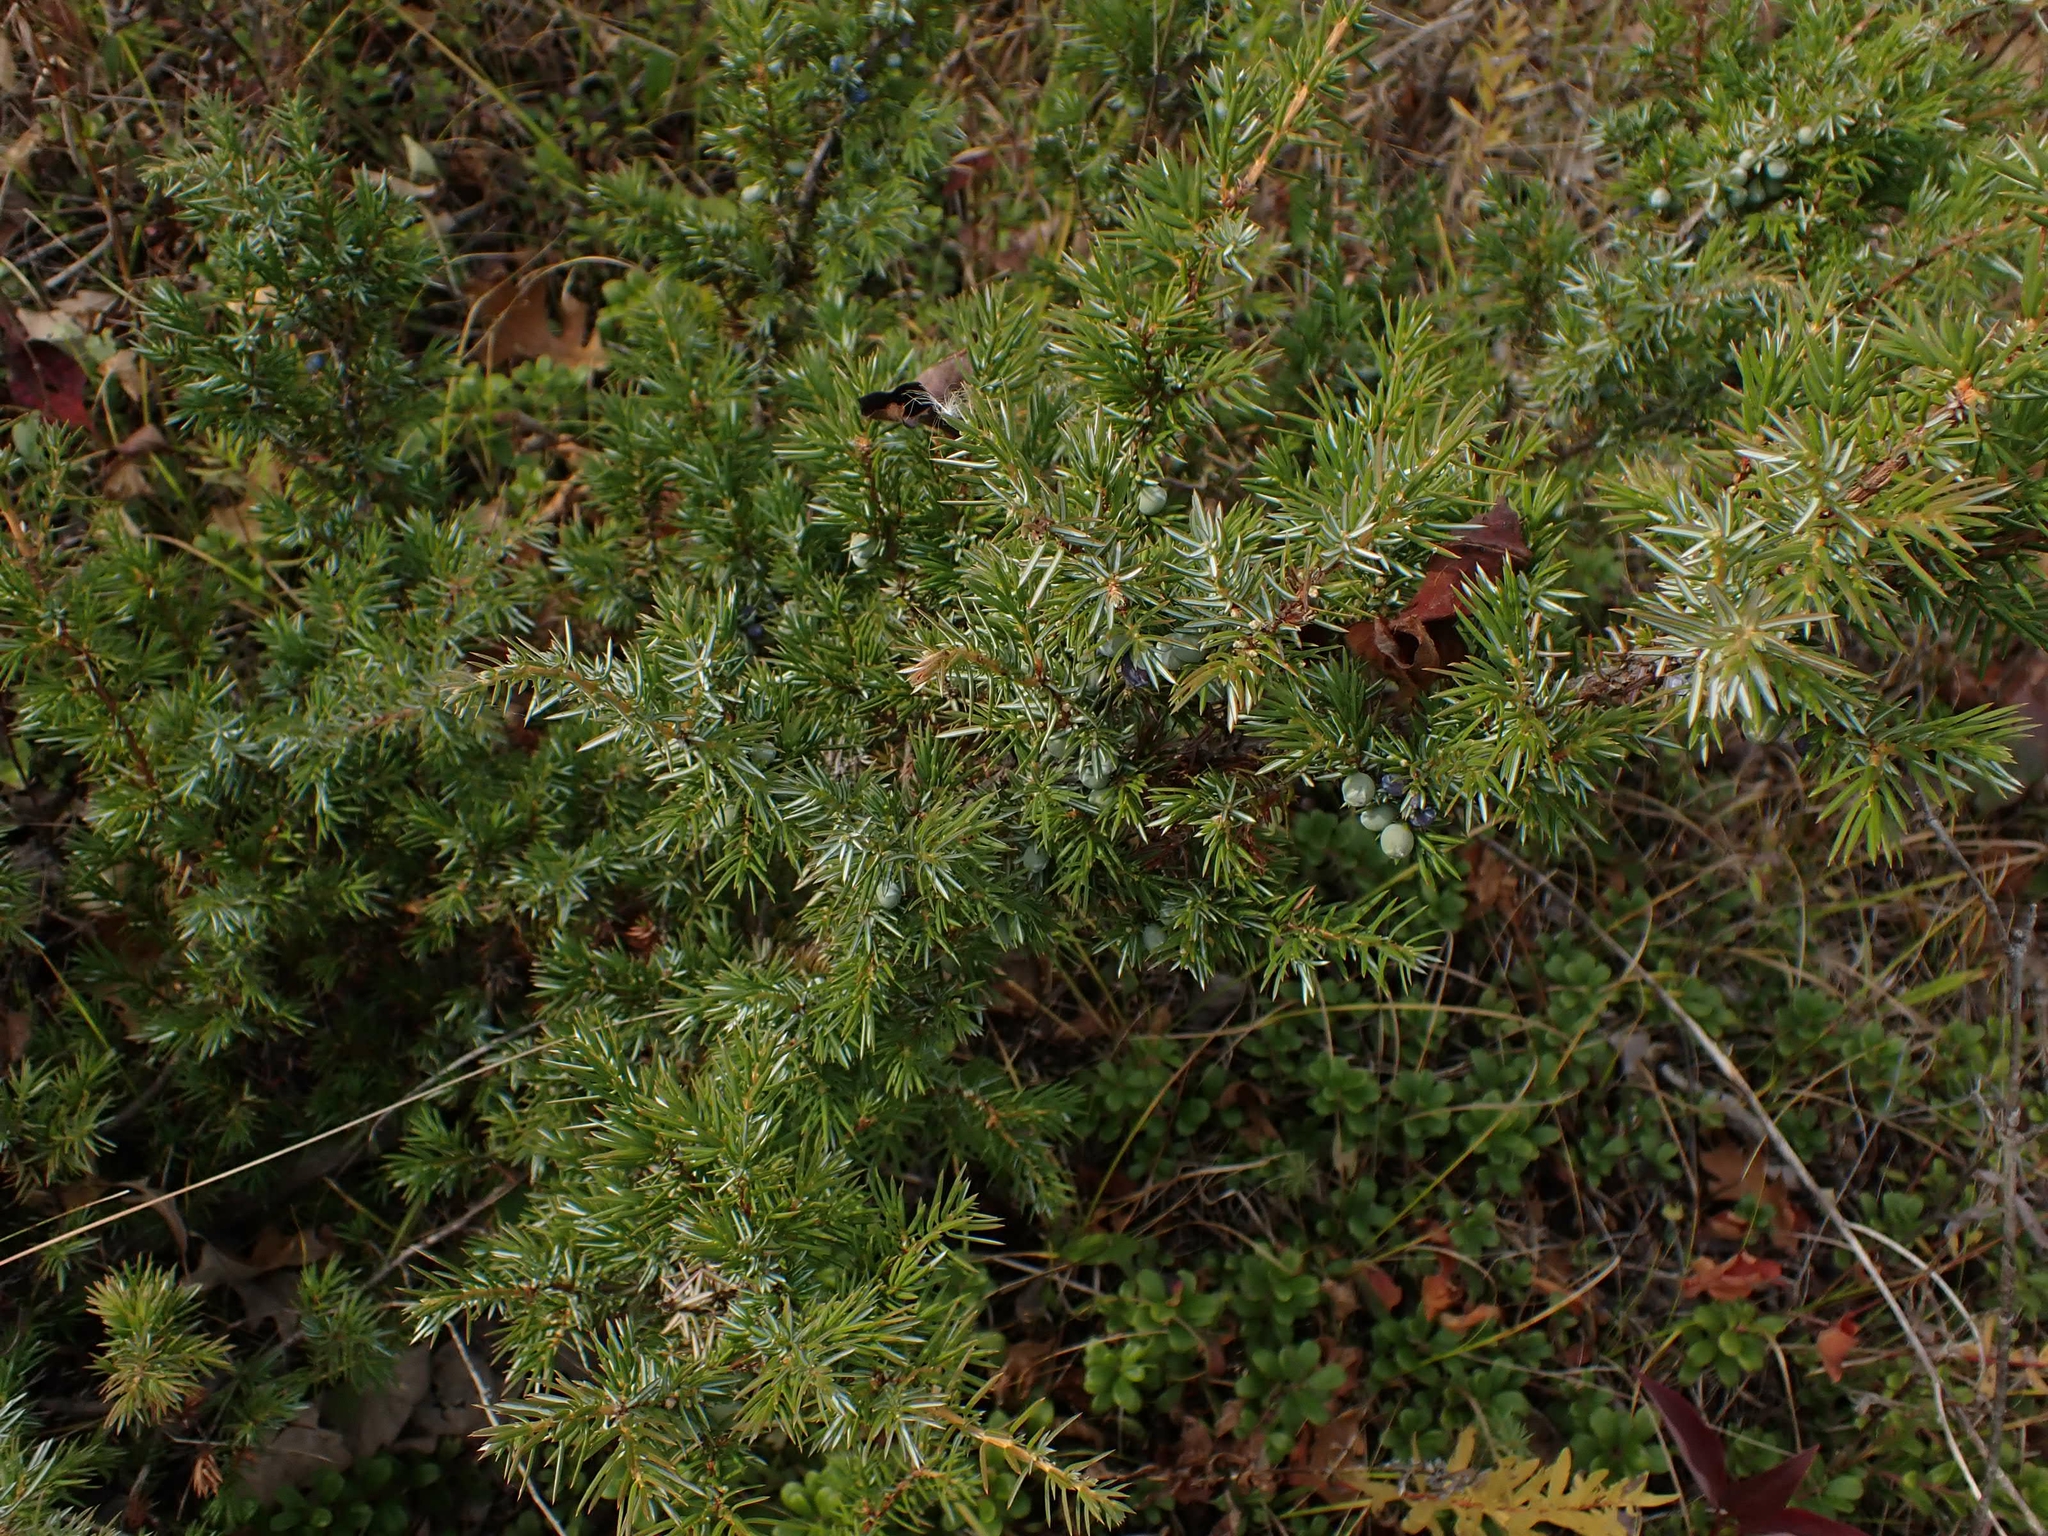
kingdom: Plantae
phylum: Tracheophyta
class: Pinopsida
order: Pinales
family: Cupressaceae
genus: Juniperus
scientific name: Juniperus communis
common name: Common juniper
